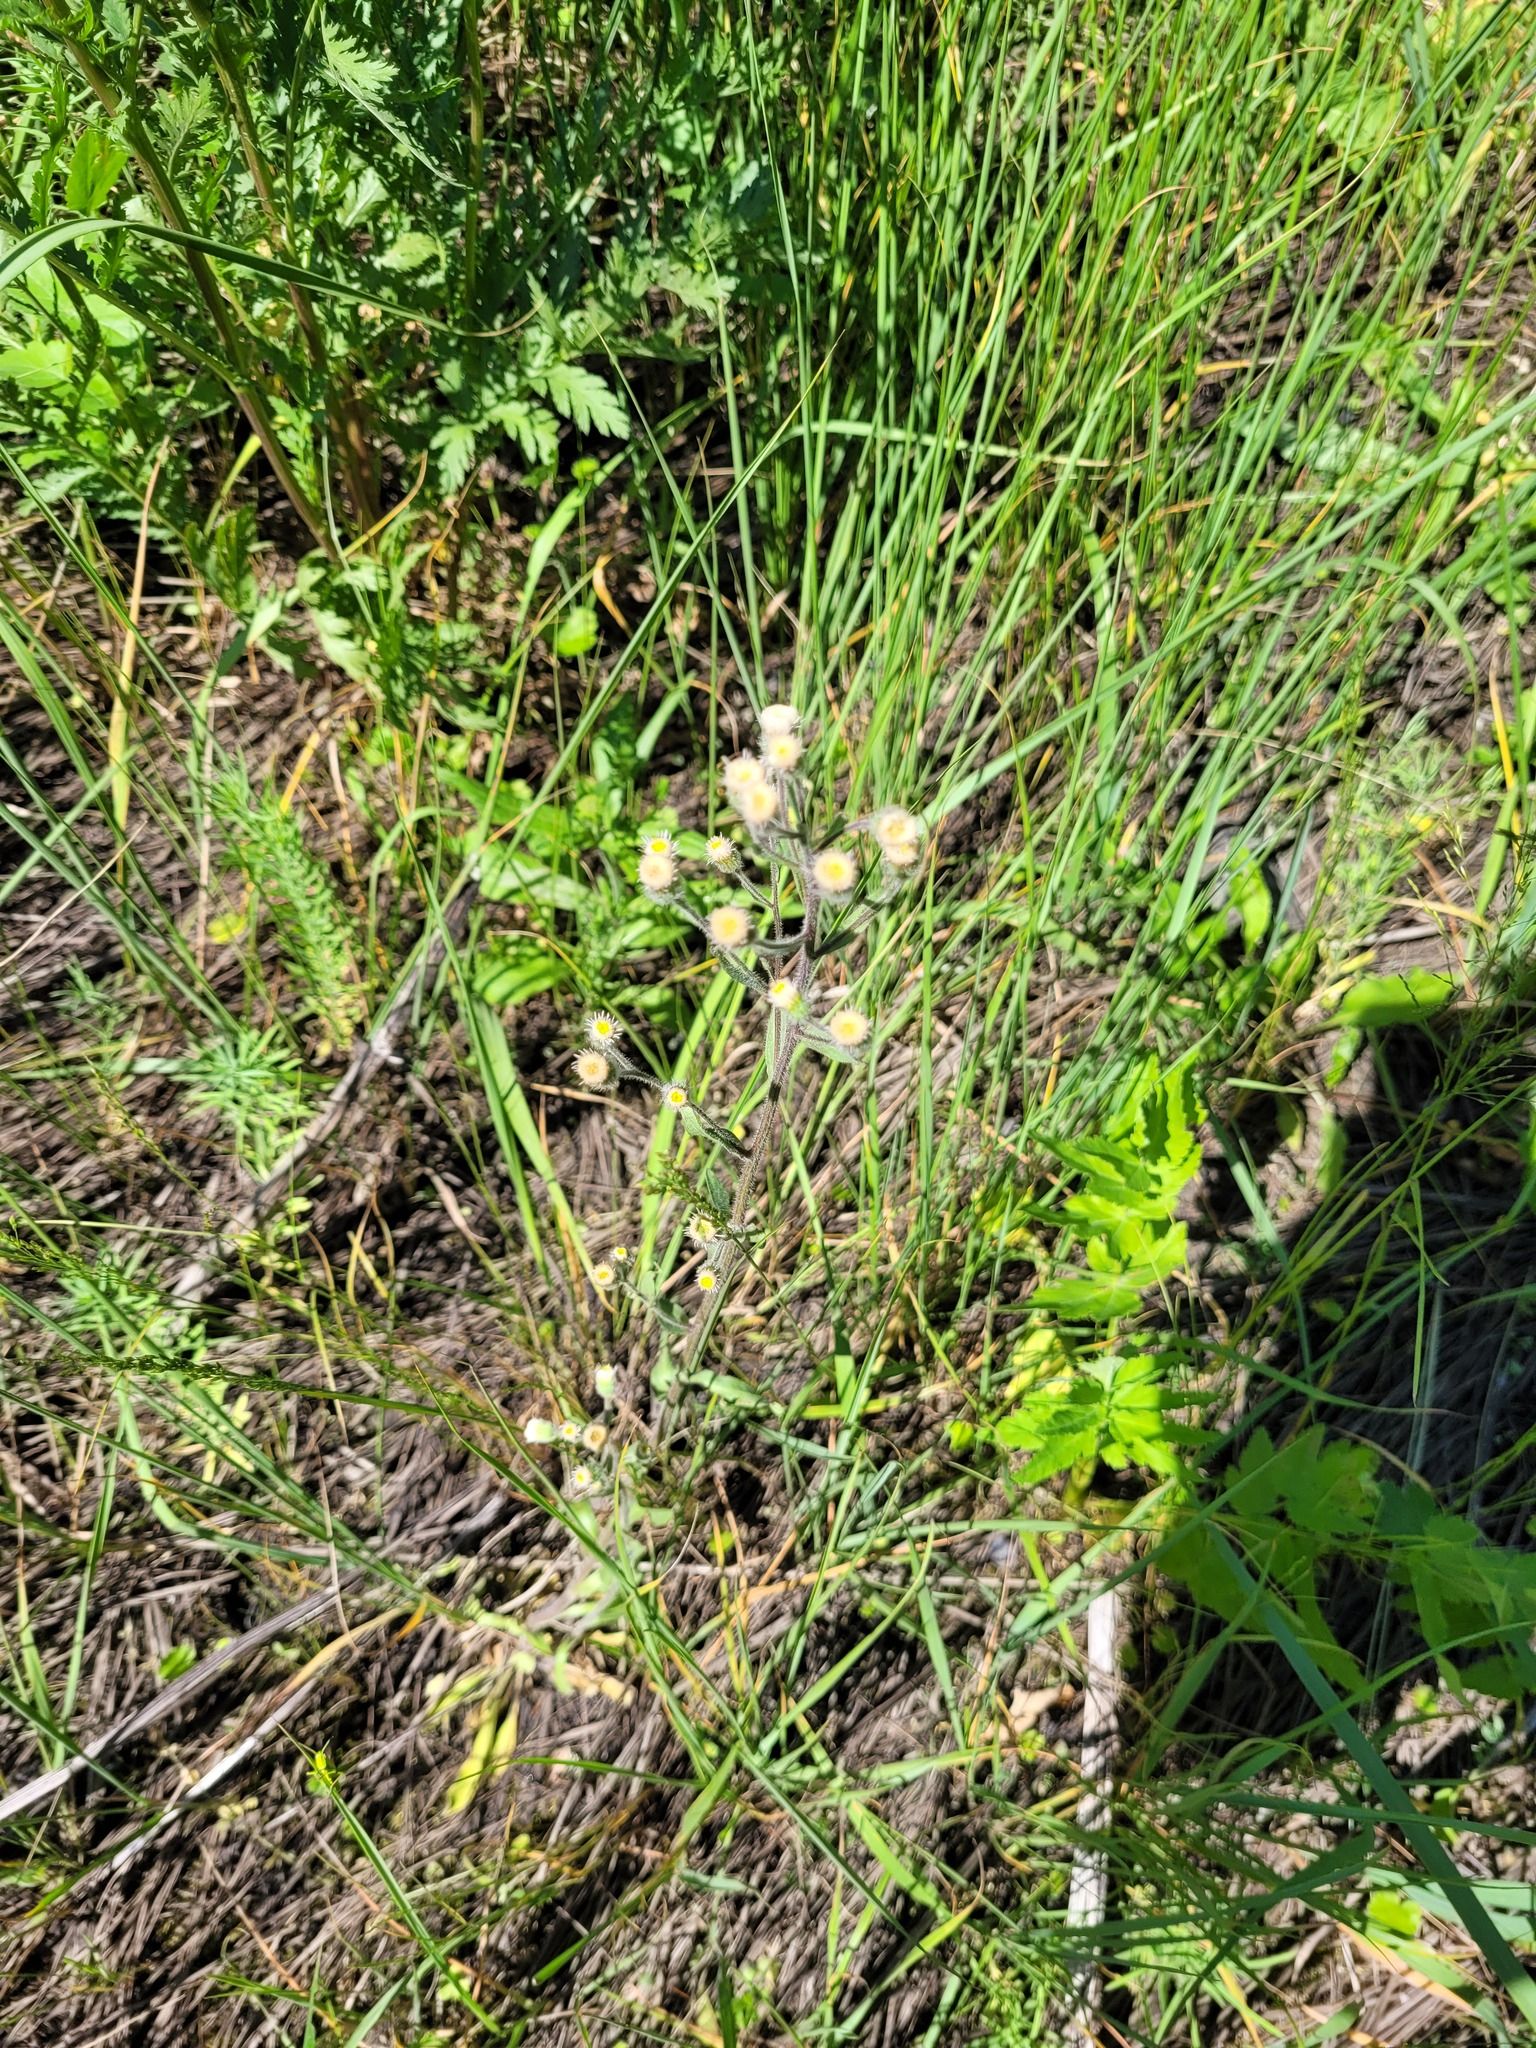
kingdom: Plantae
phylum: Tracheophyta
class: Magnoliopsida
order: Asterales
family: Asteraceae
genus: Erigeron
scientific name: Erigeron acris
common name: Blue fleabane
